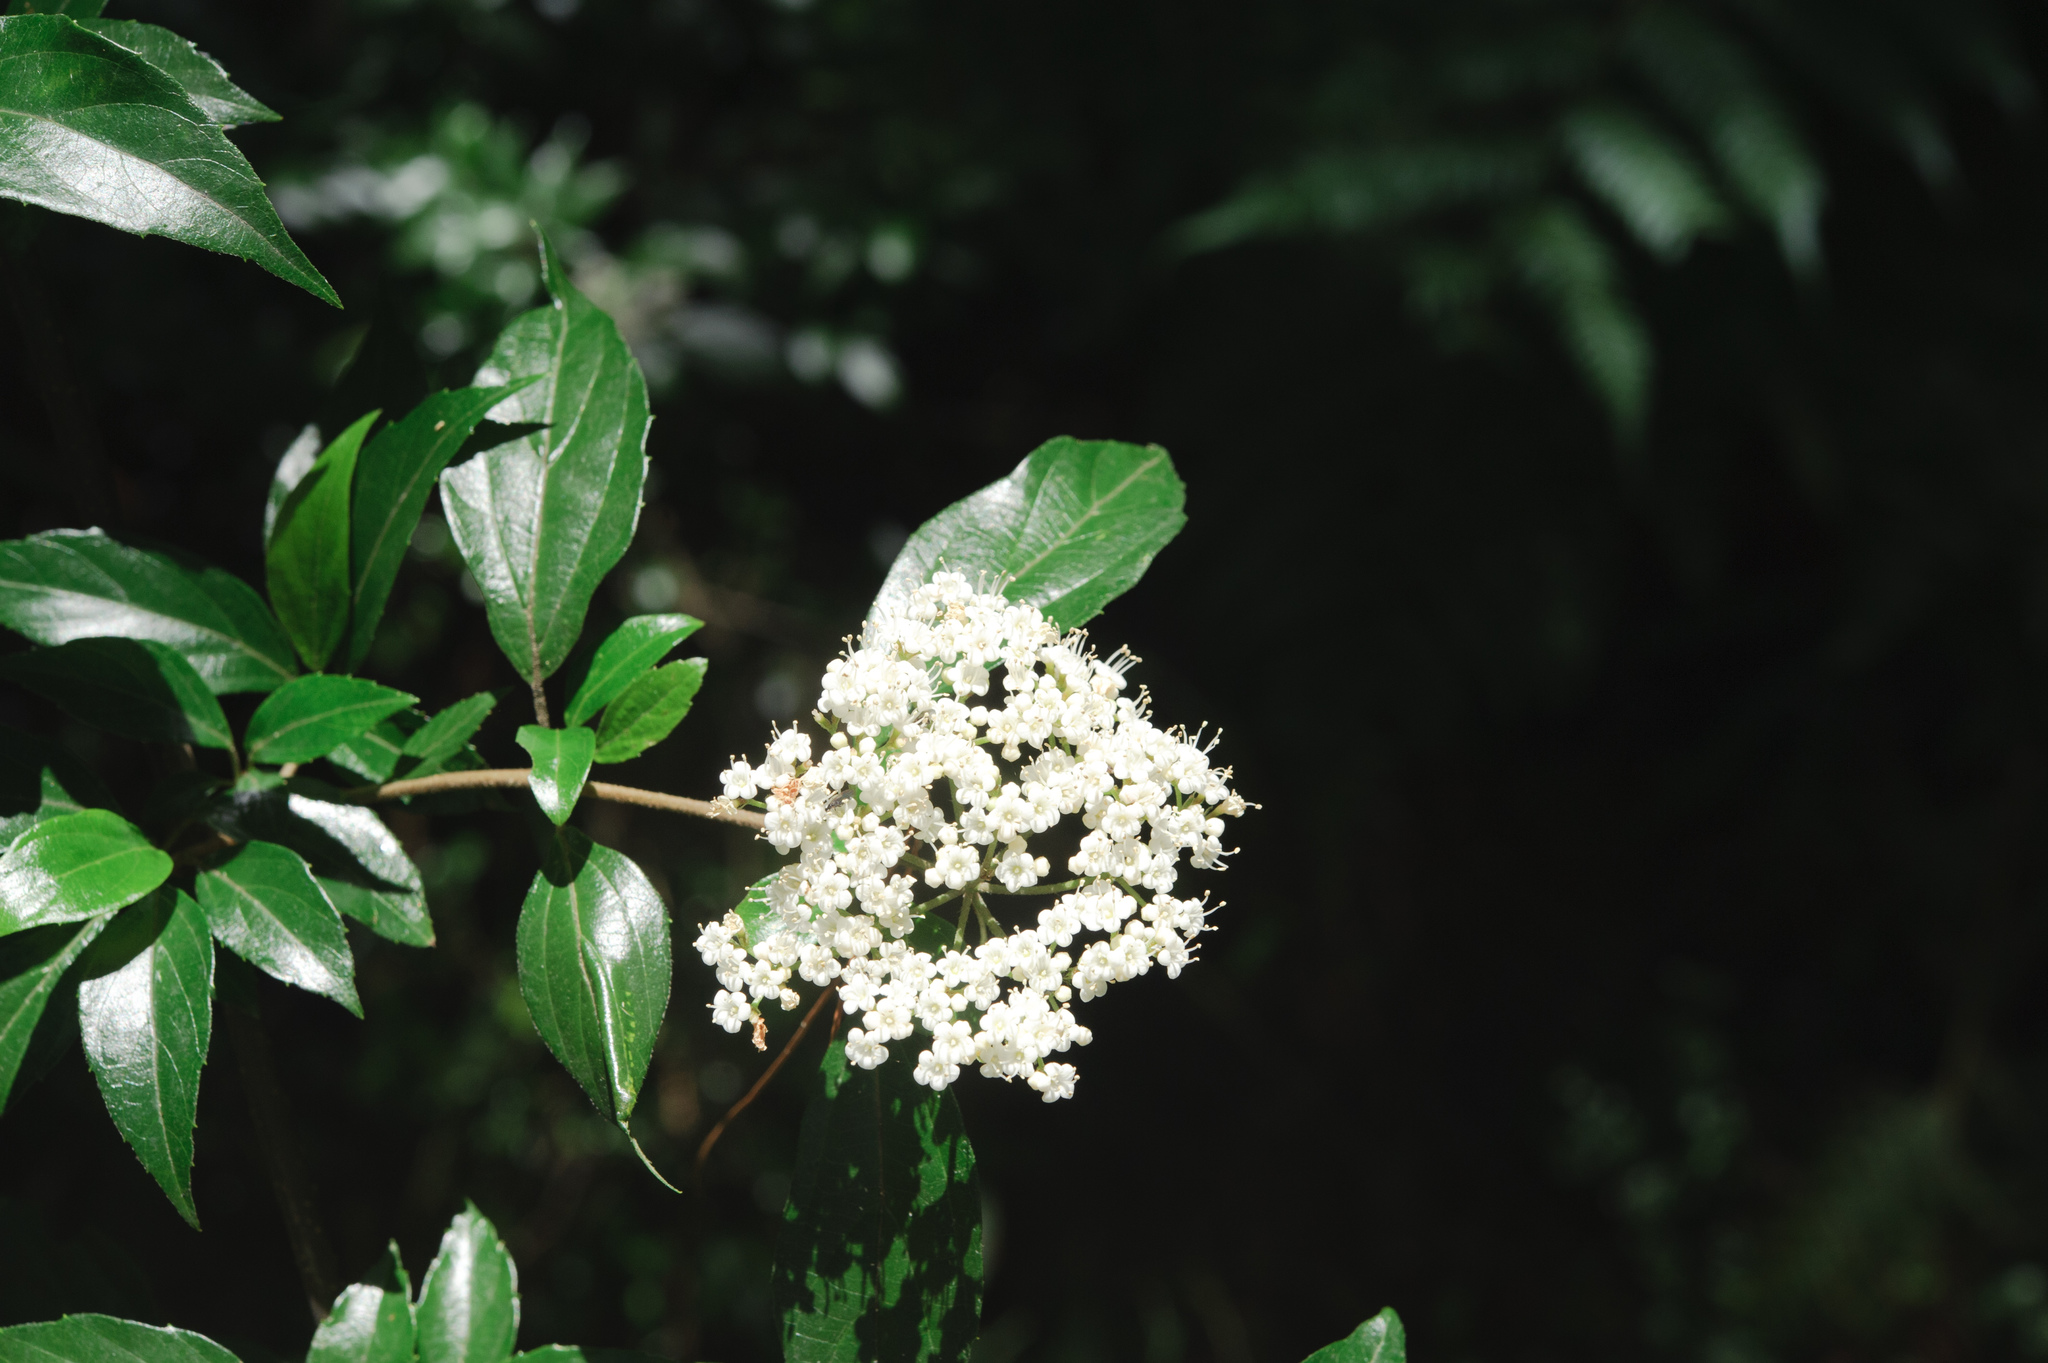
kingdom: Plantae
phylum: Tracheophyta
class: Magnoliopsida
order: Dipsacales
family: Viburnaceae
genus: Viburnum
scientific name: Viburnum foetidum
